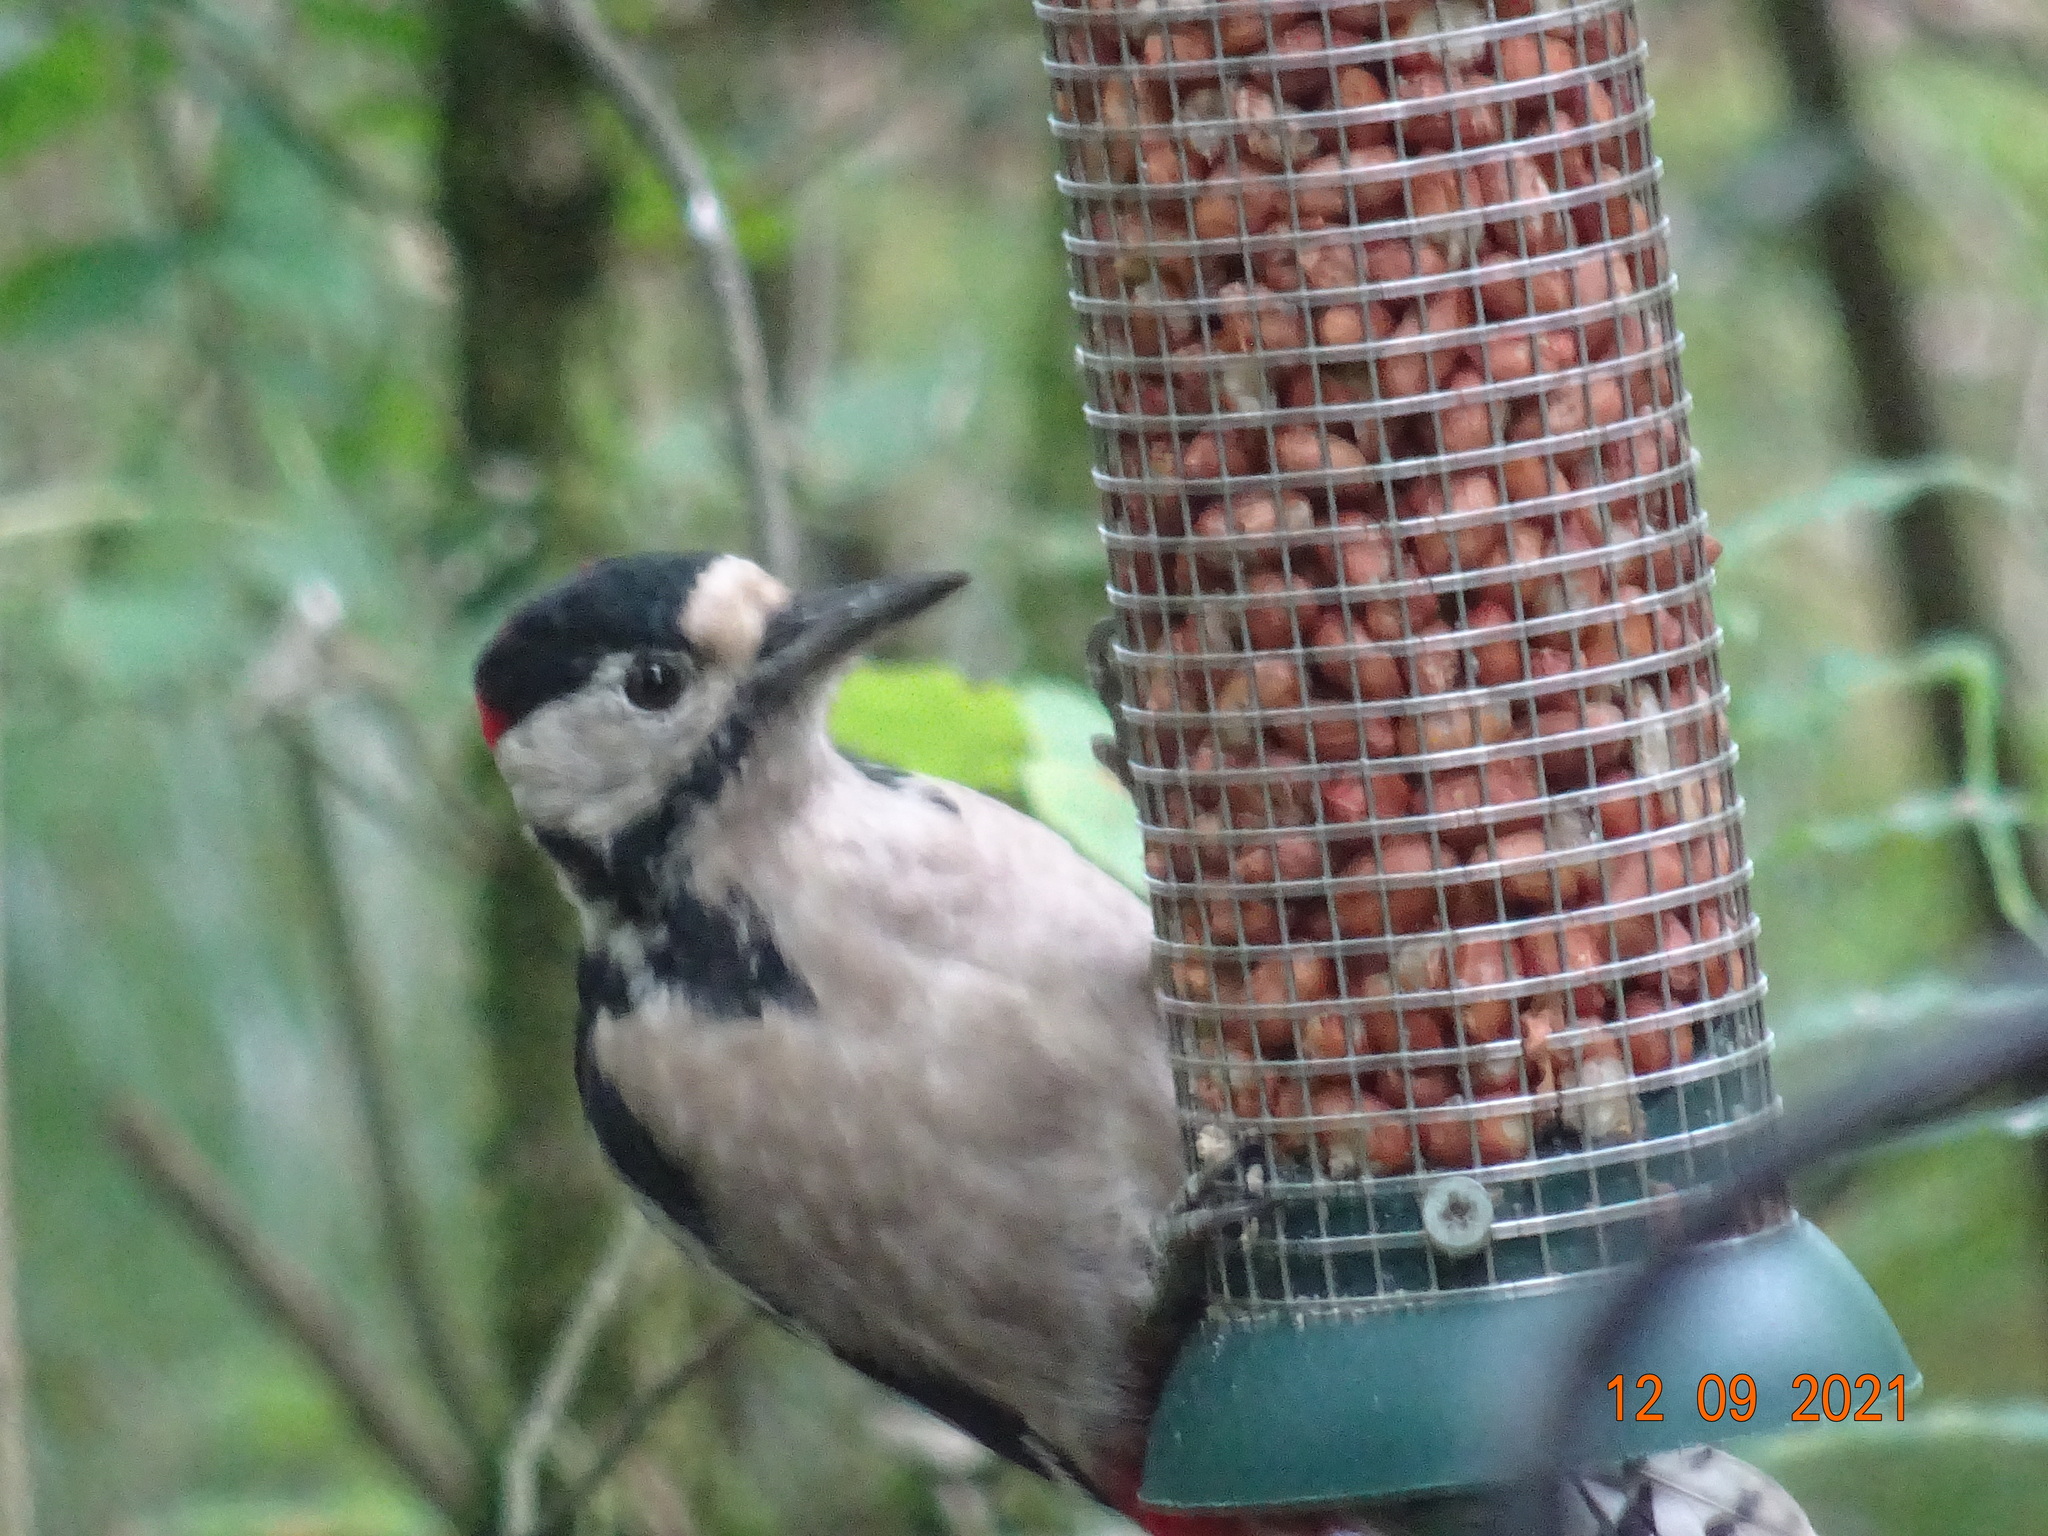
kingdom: Animalia
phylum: Chordata
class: Aves
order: Piciformes
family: Picidae
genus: Dendrocopos
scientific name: Dendrocopos major
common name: Great spotted woodpecker
